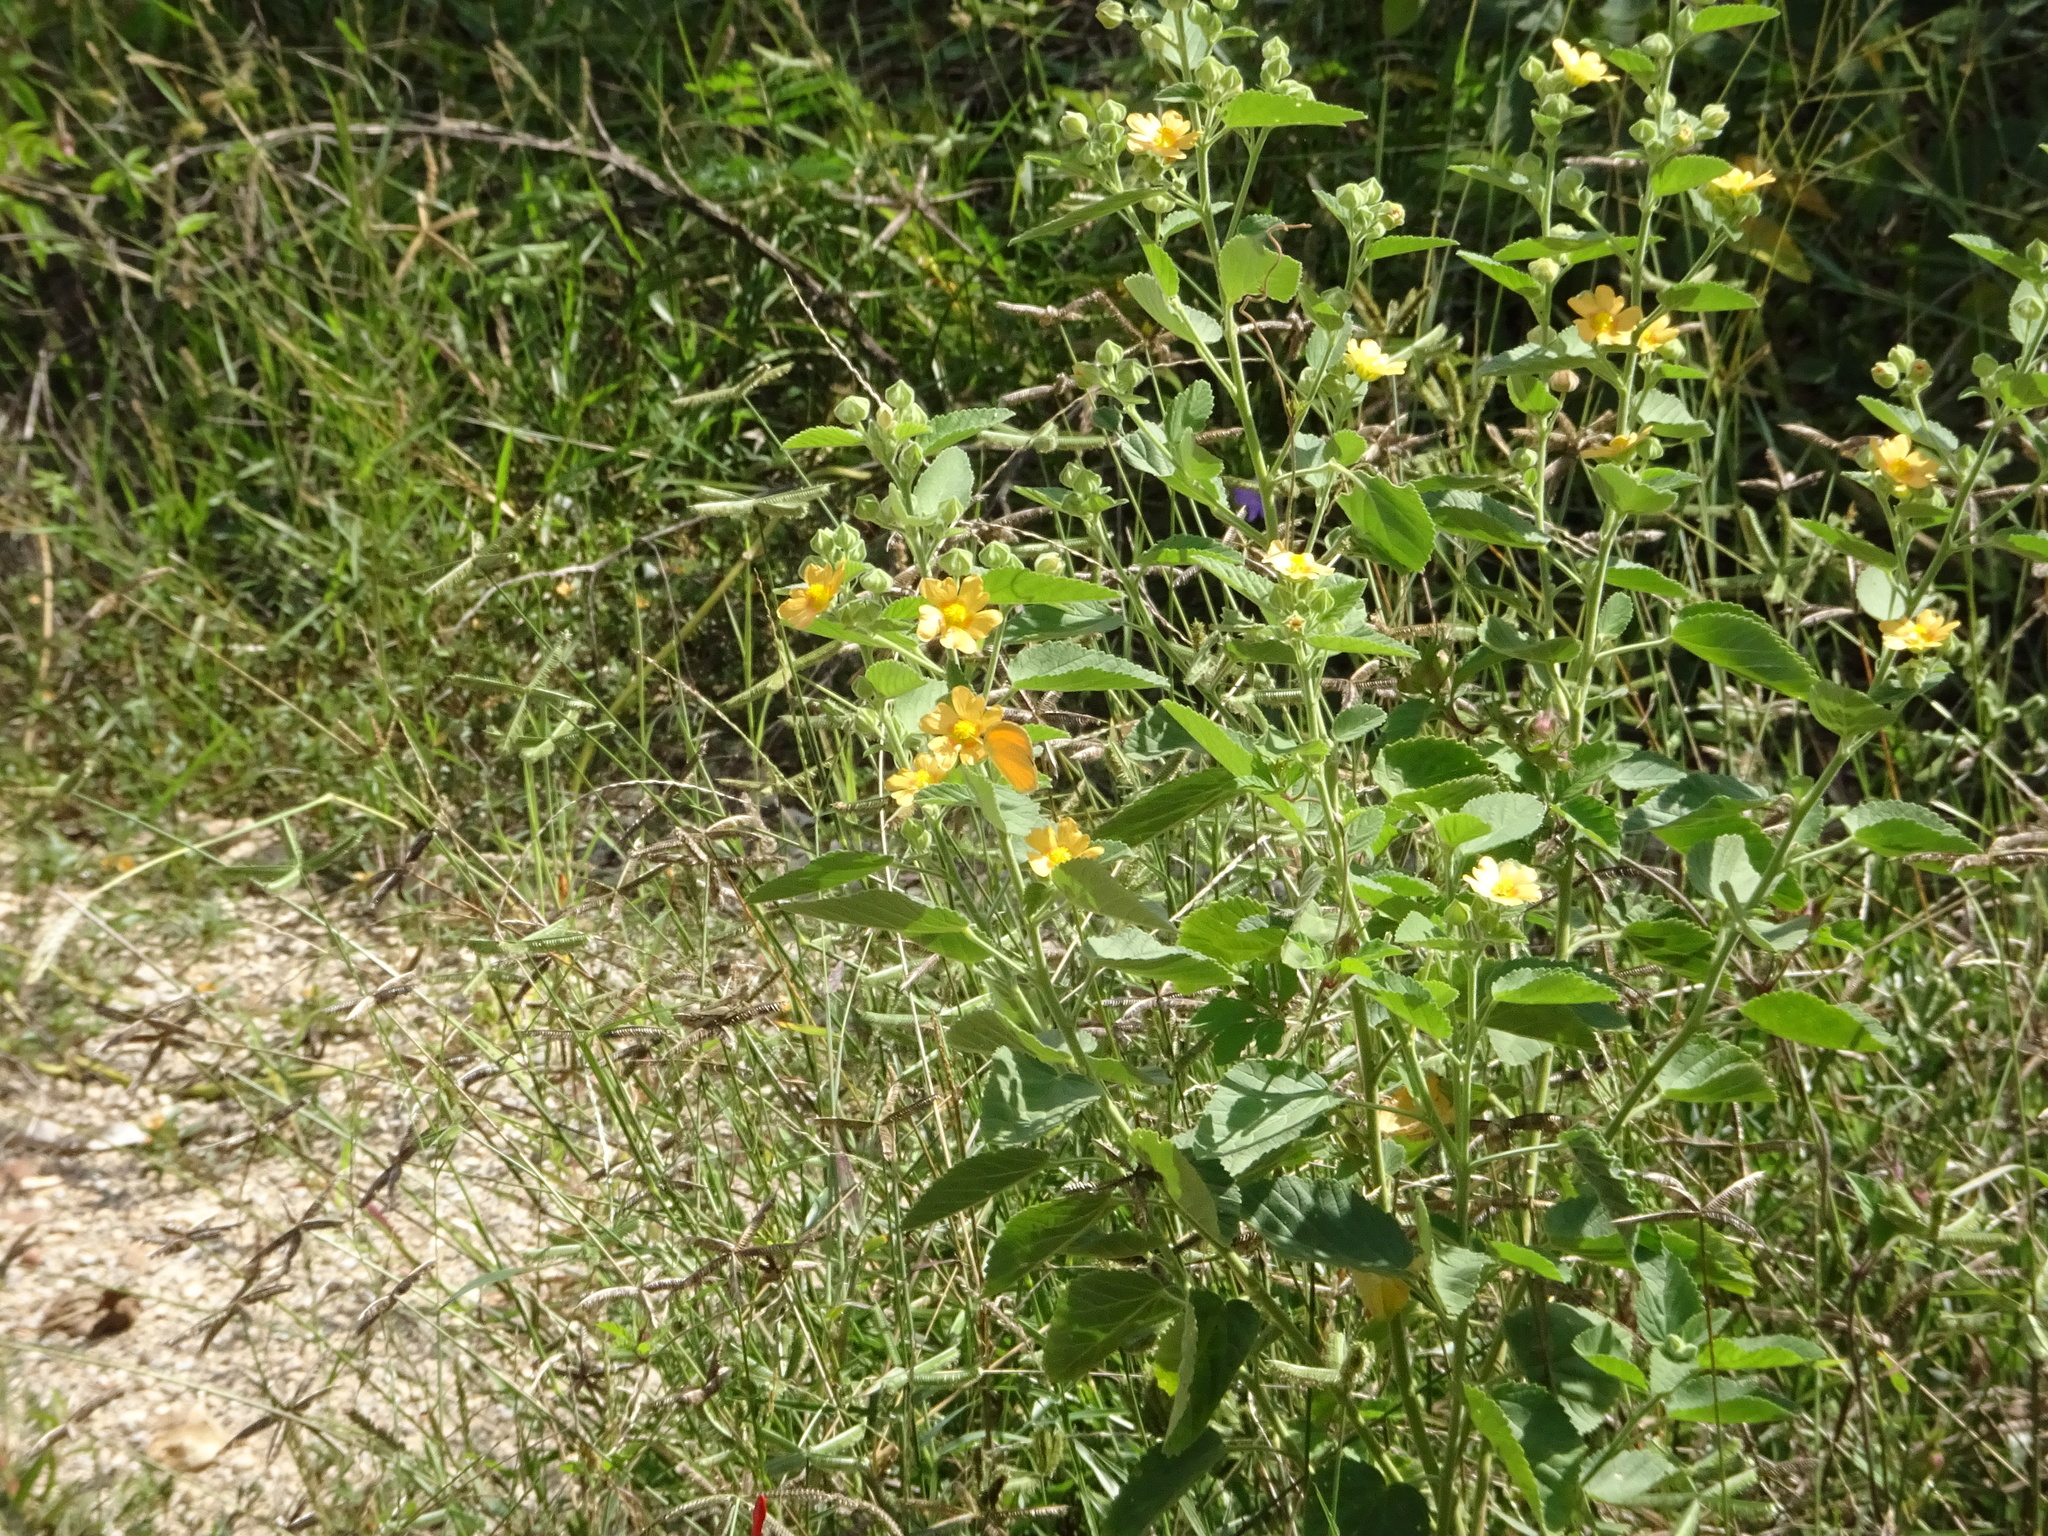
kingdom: Plantae
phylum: Tracheophyta
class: Magnoliopsida
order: Malvales
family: Malvaceae
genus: Sida
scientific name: Sida cordifolia
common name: Ilima
